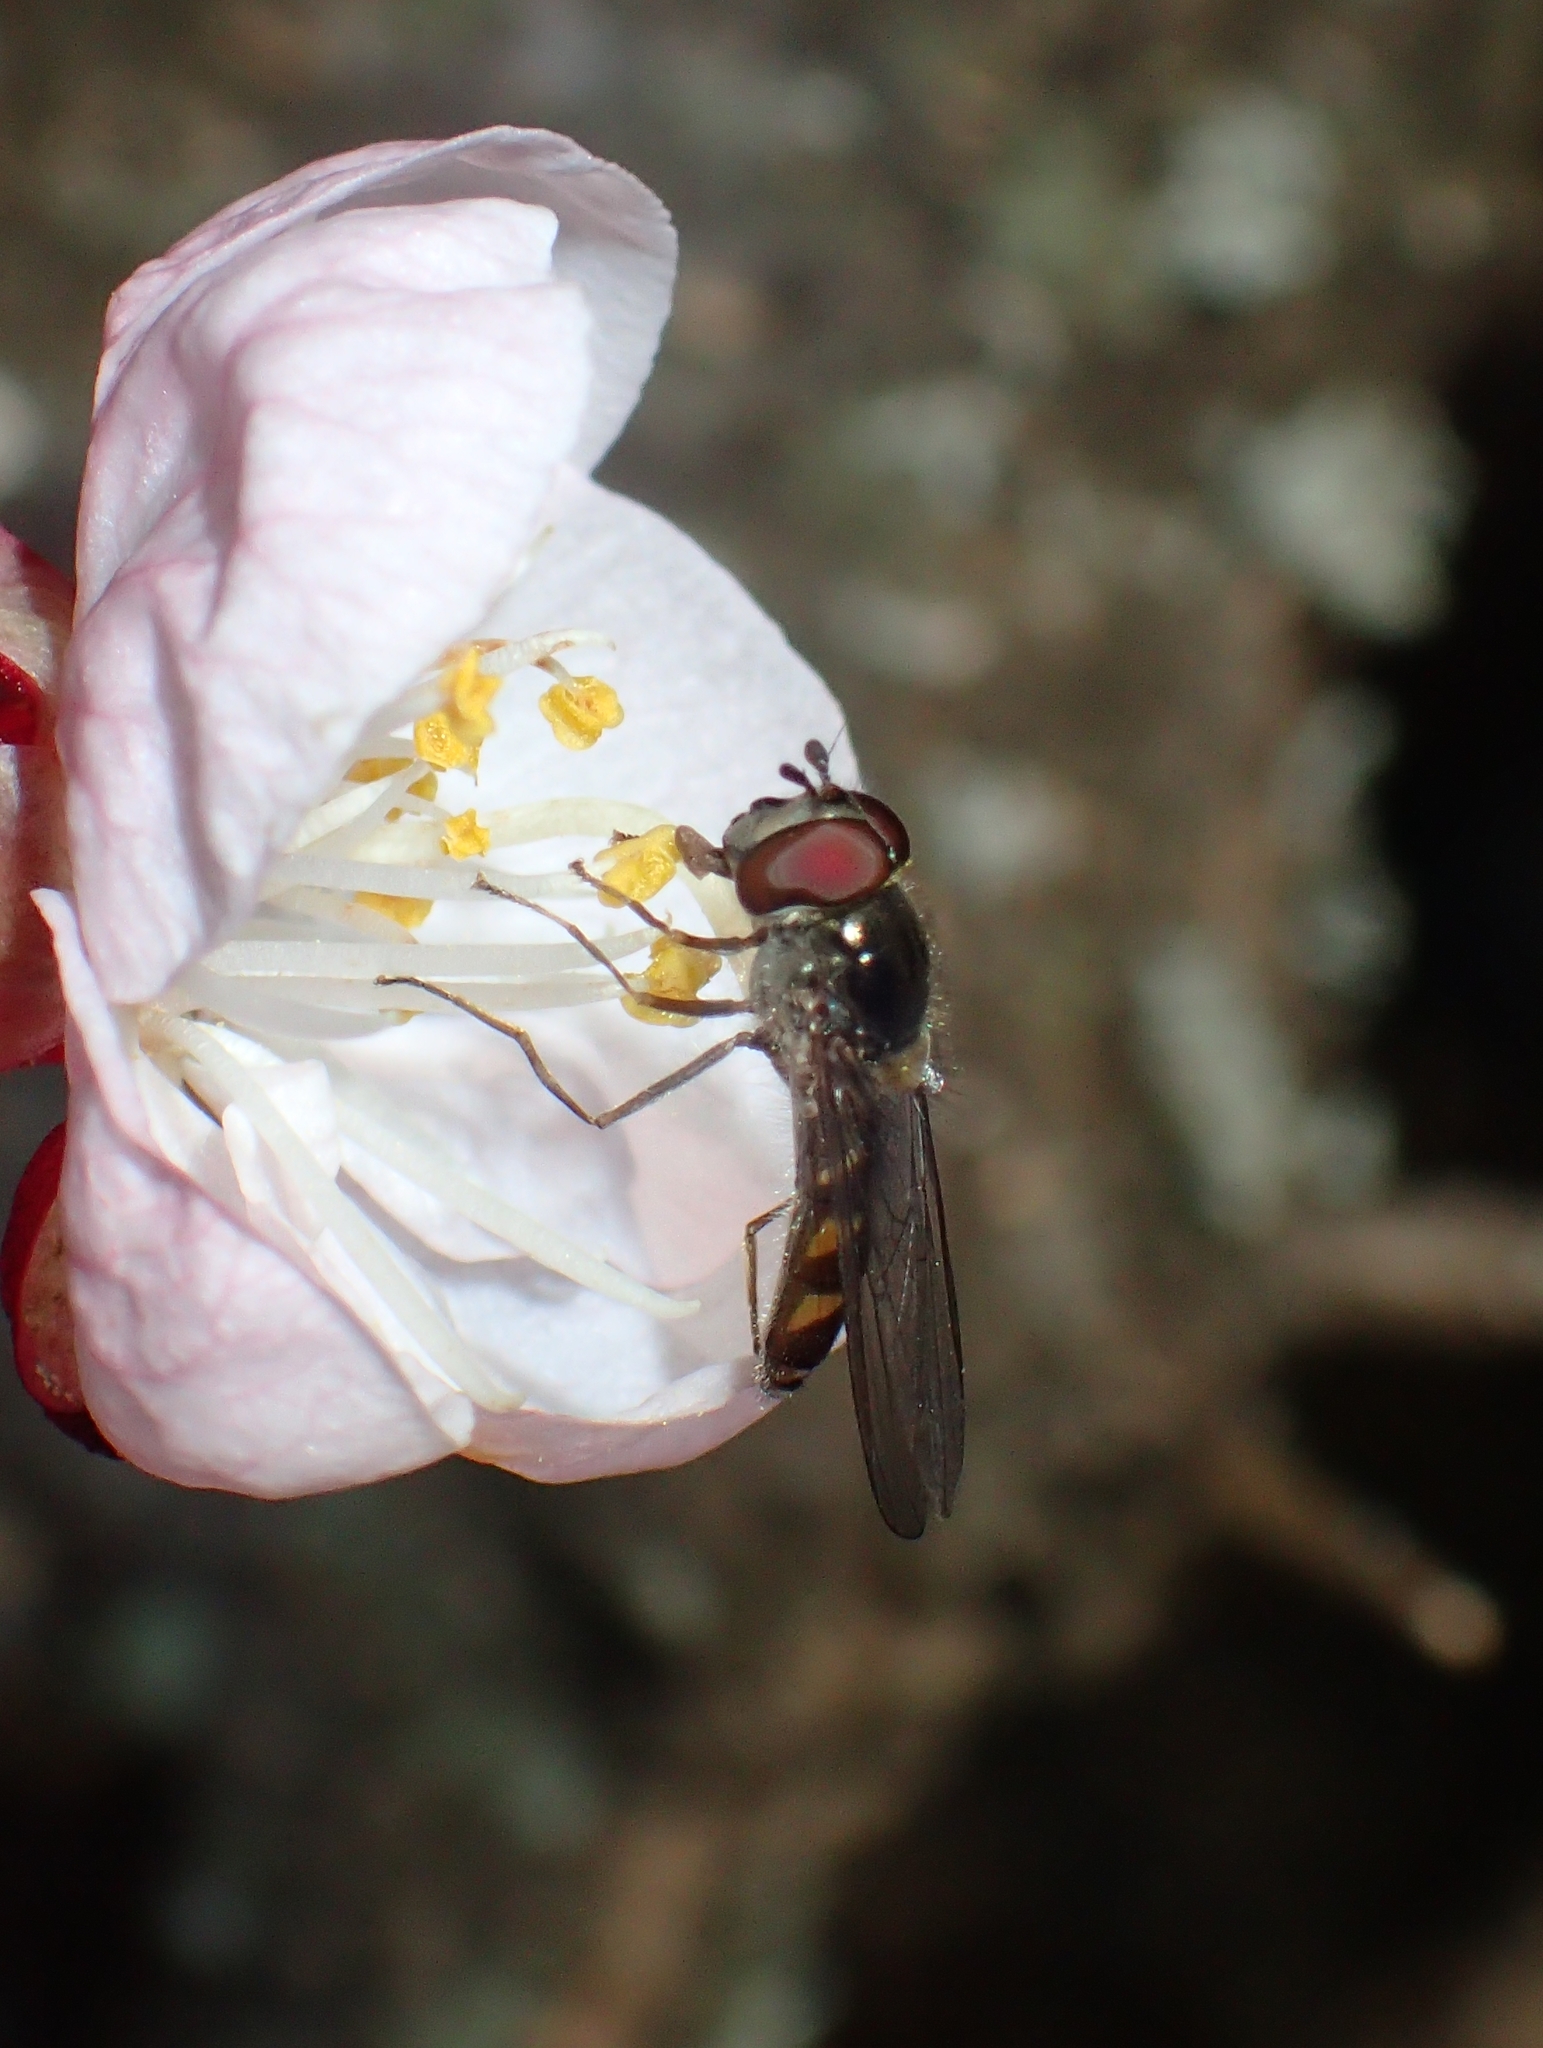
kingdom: Animalia
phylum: Arthropoda
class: Insecta
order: Diptera
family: Syrphidae
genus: Meliscaeva
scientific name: Meliscaeva auricollis
